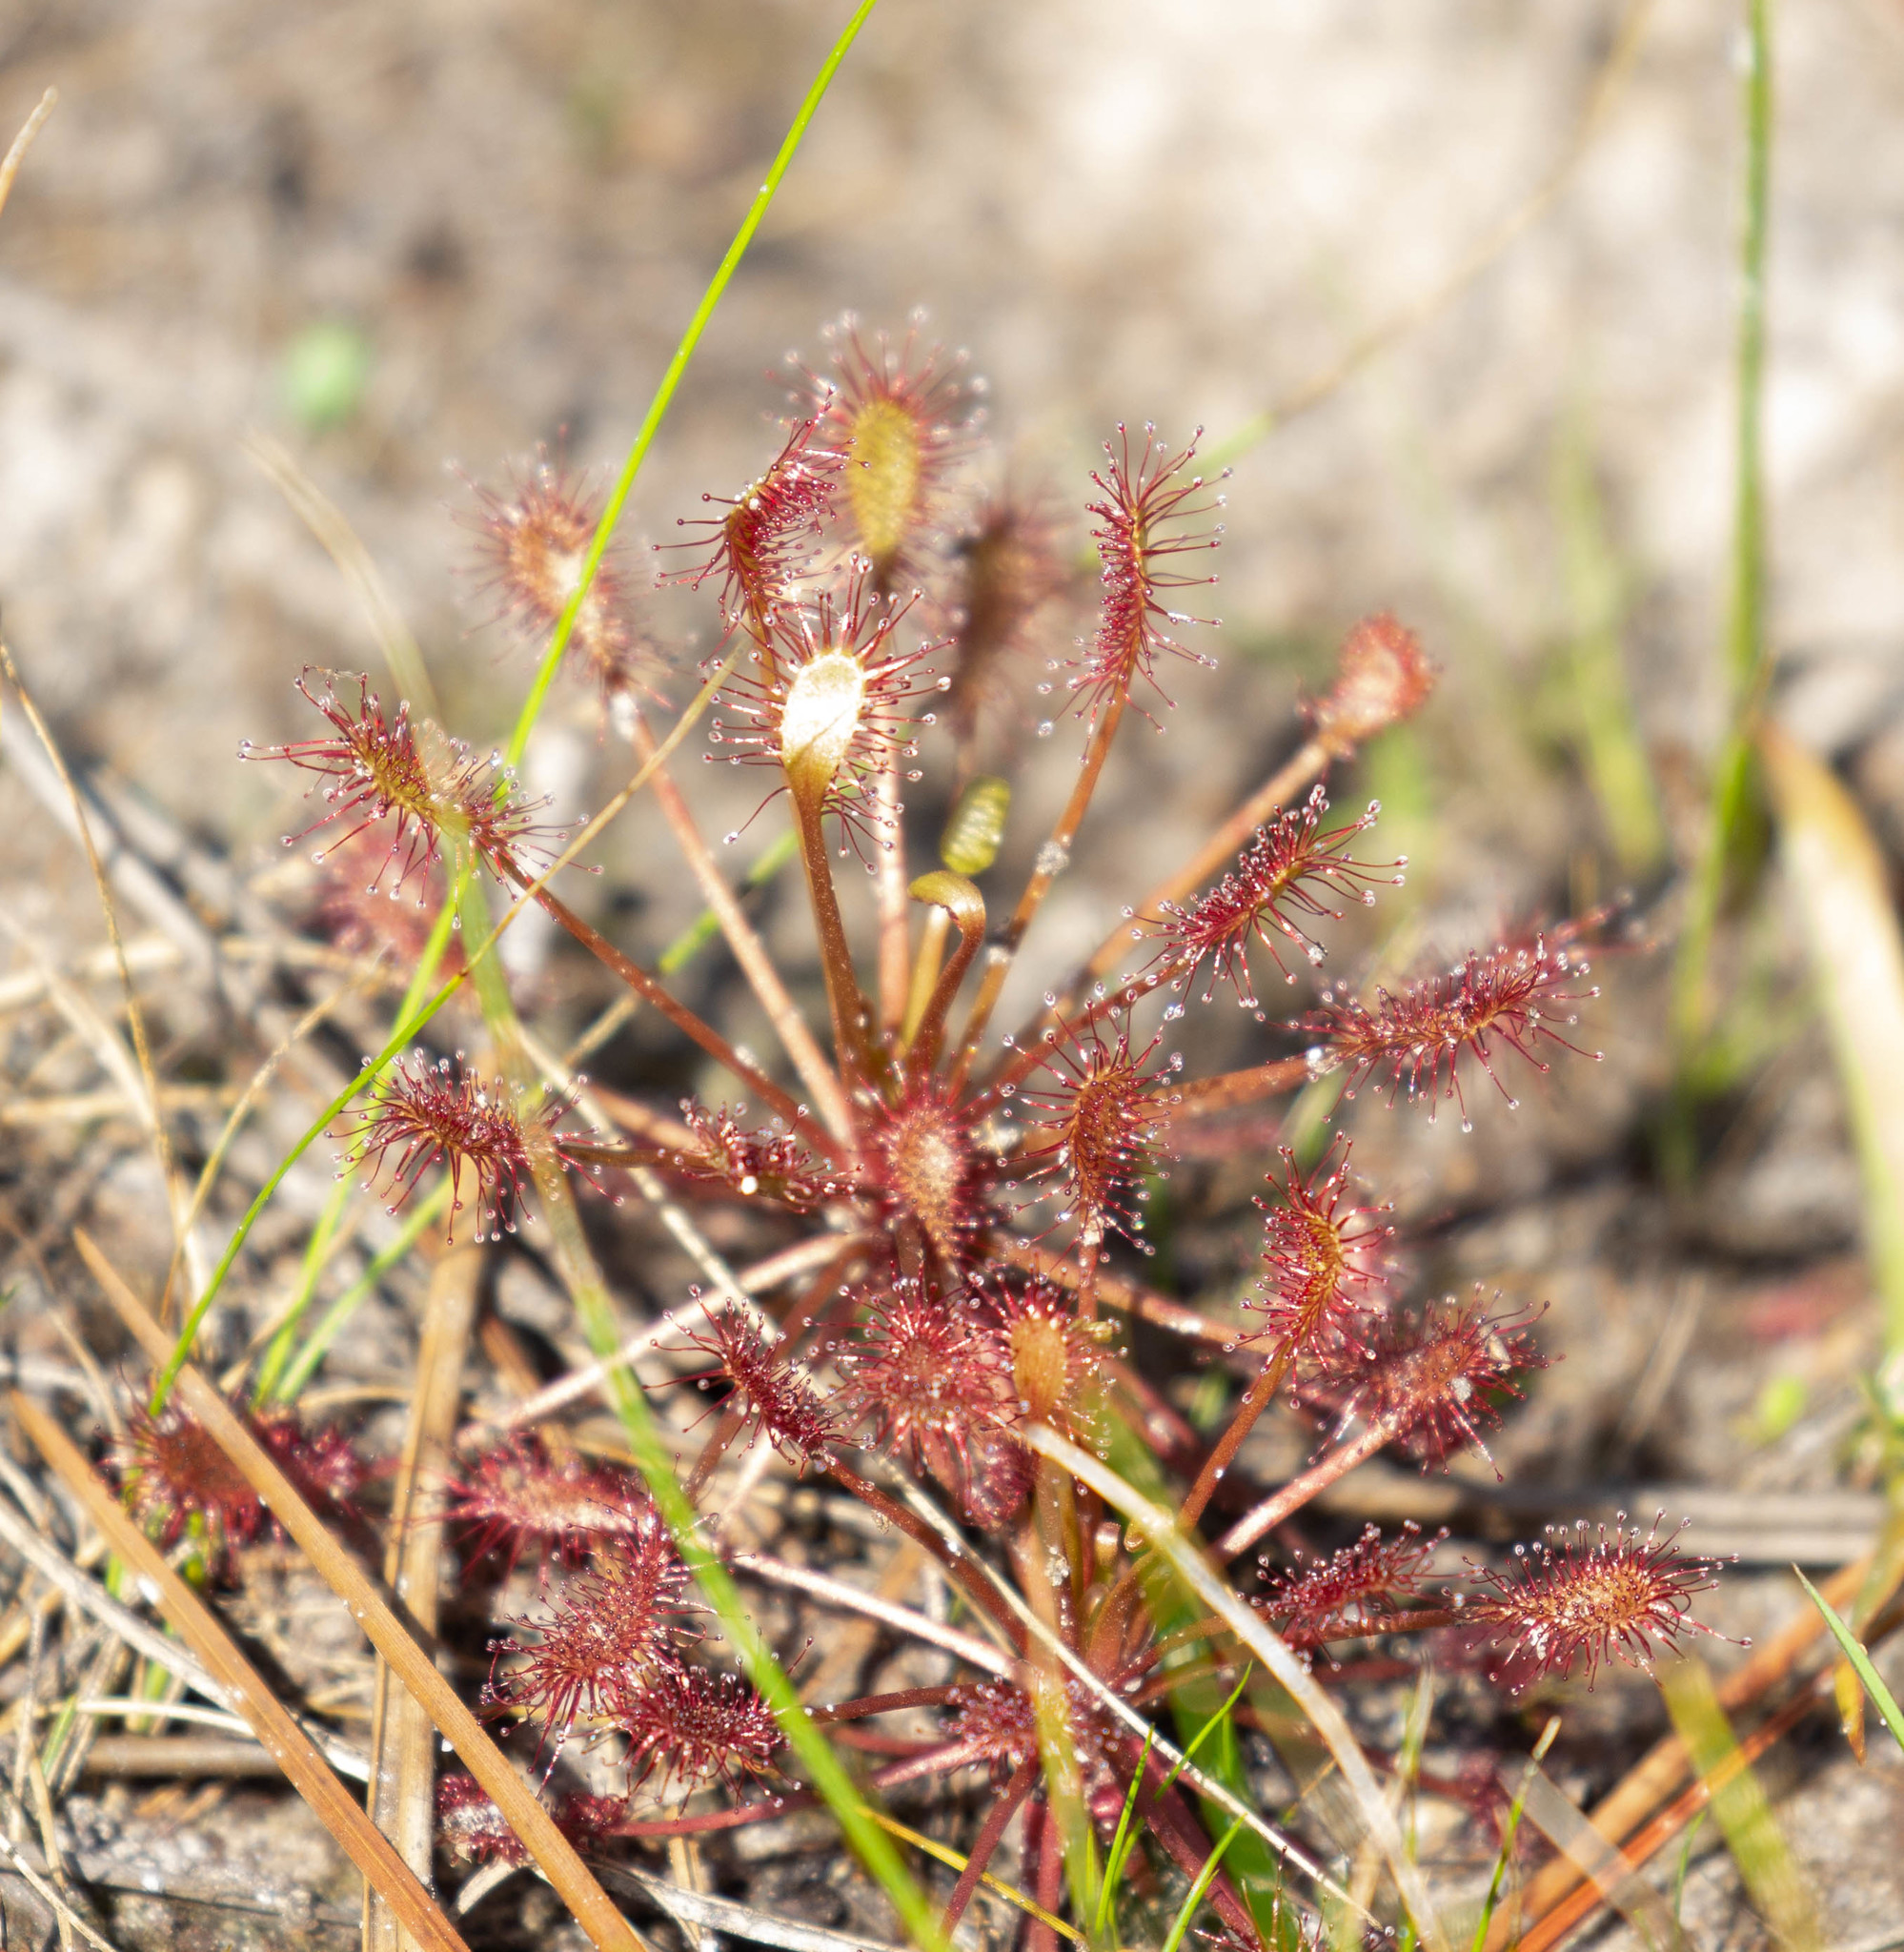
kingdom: Plantae
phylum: Tracheophyta
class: Magnoliopsida
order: Caryophyllales
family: Droseraceae
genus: Drosera
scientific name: Drosera intermedia
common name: Oblong-leaved sundew
